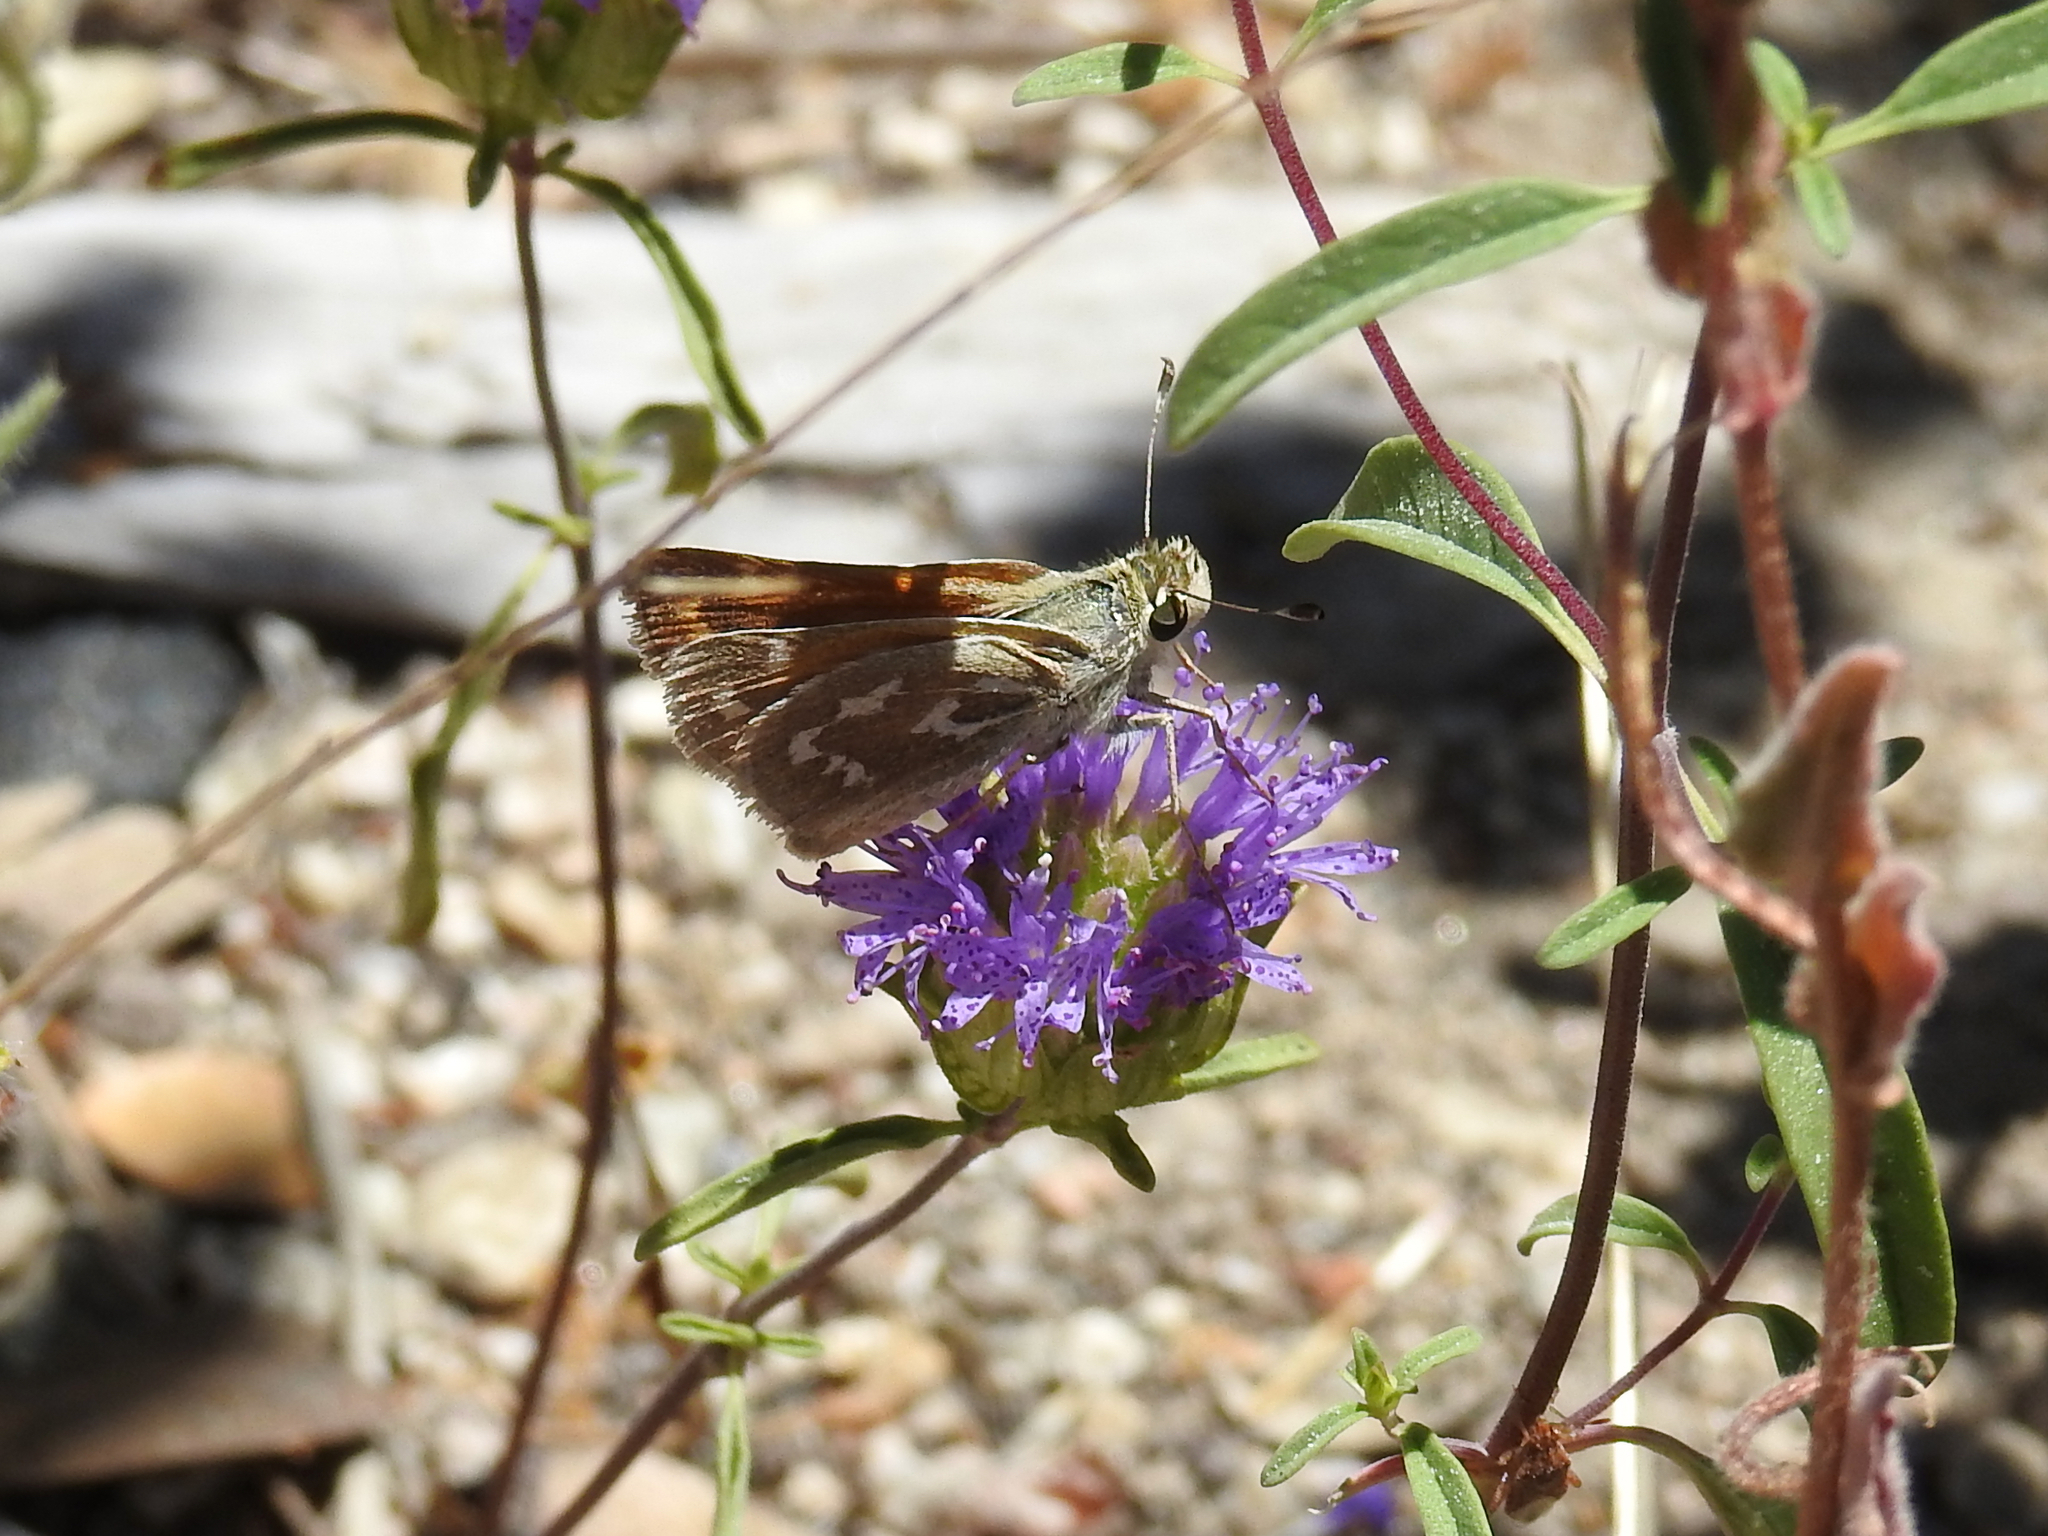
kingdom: Animalia
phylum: Arthropoda
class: Insecta
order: Lepidoptera
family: Hesperiidae
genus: Hesperia
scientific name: Hesperia comma
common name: Common branded skipper
